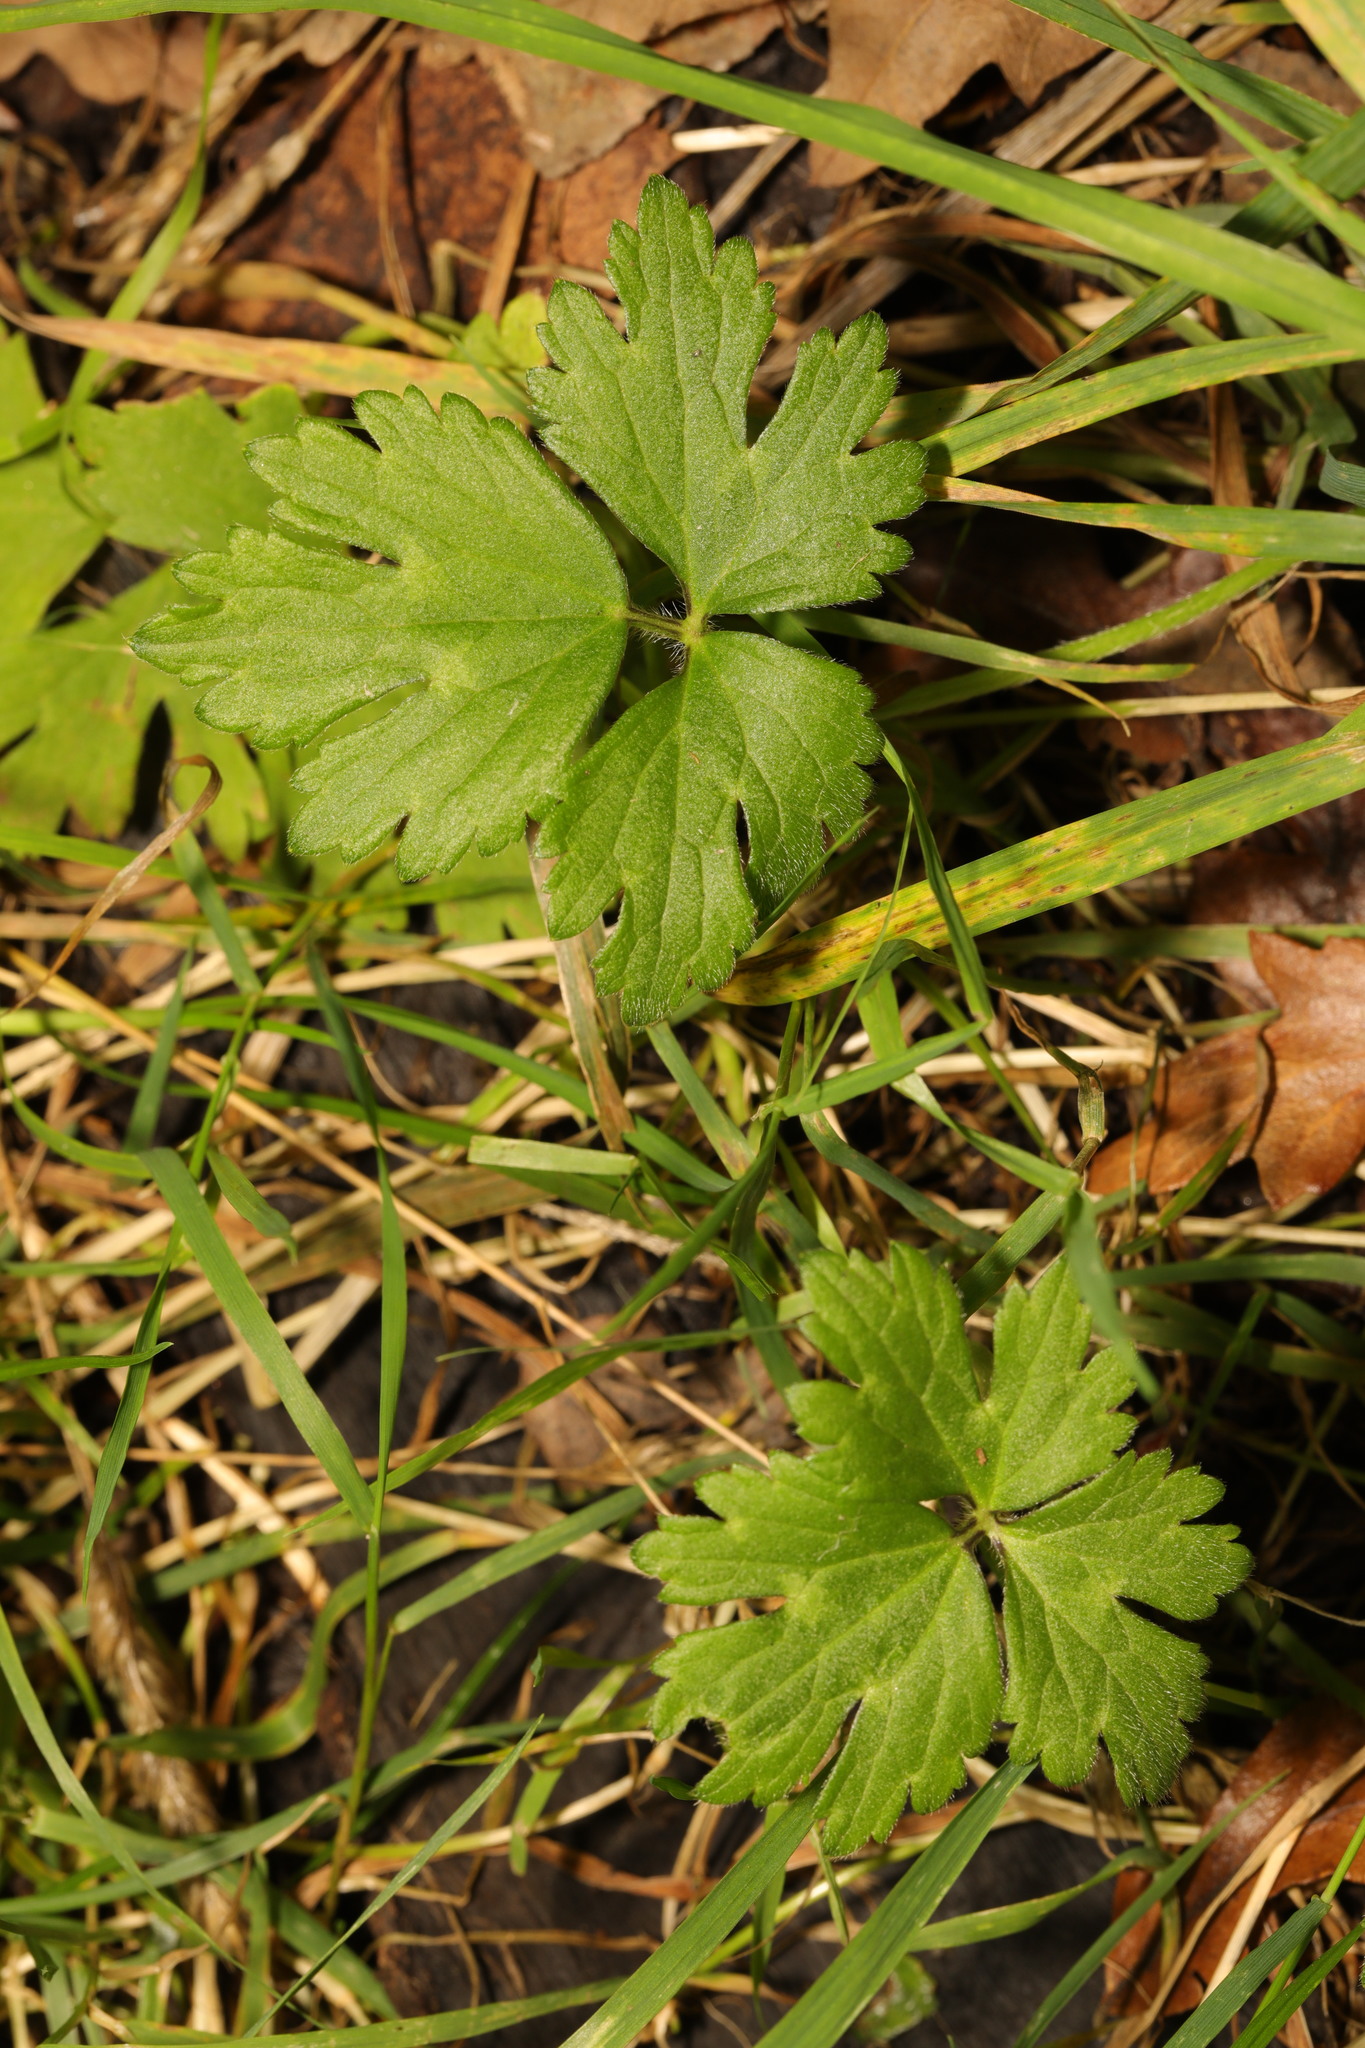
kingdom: Plantae
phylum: Tracheophyta
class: Magnoliopsida
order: Ranunculales
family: Ranunculaceae
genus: Ranunculus
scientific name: Ranunculus repens
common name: Creeping buttercup
